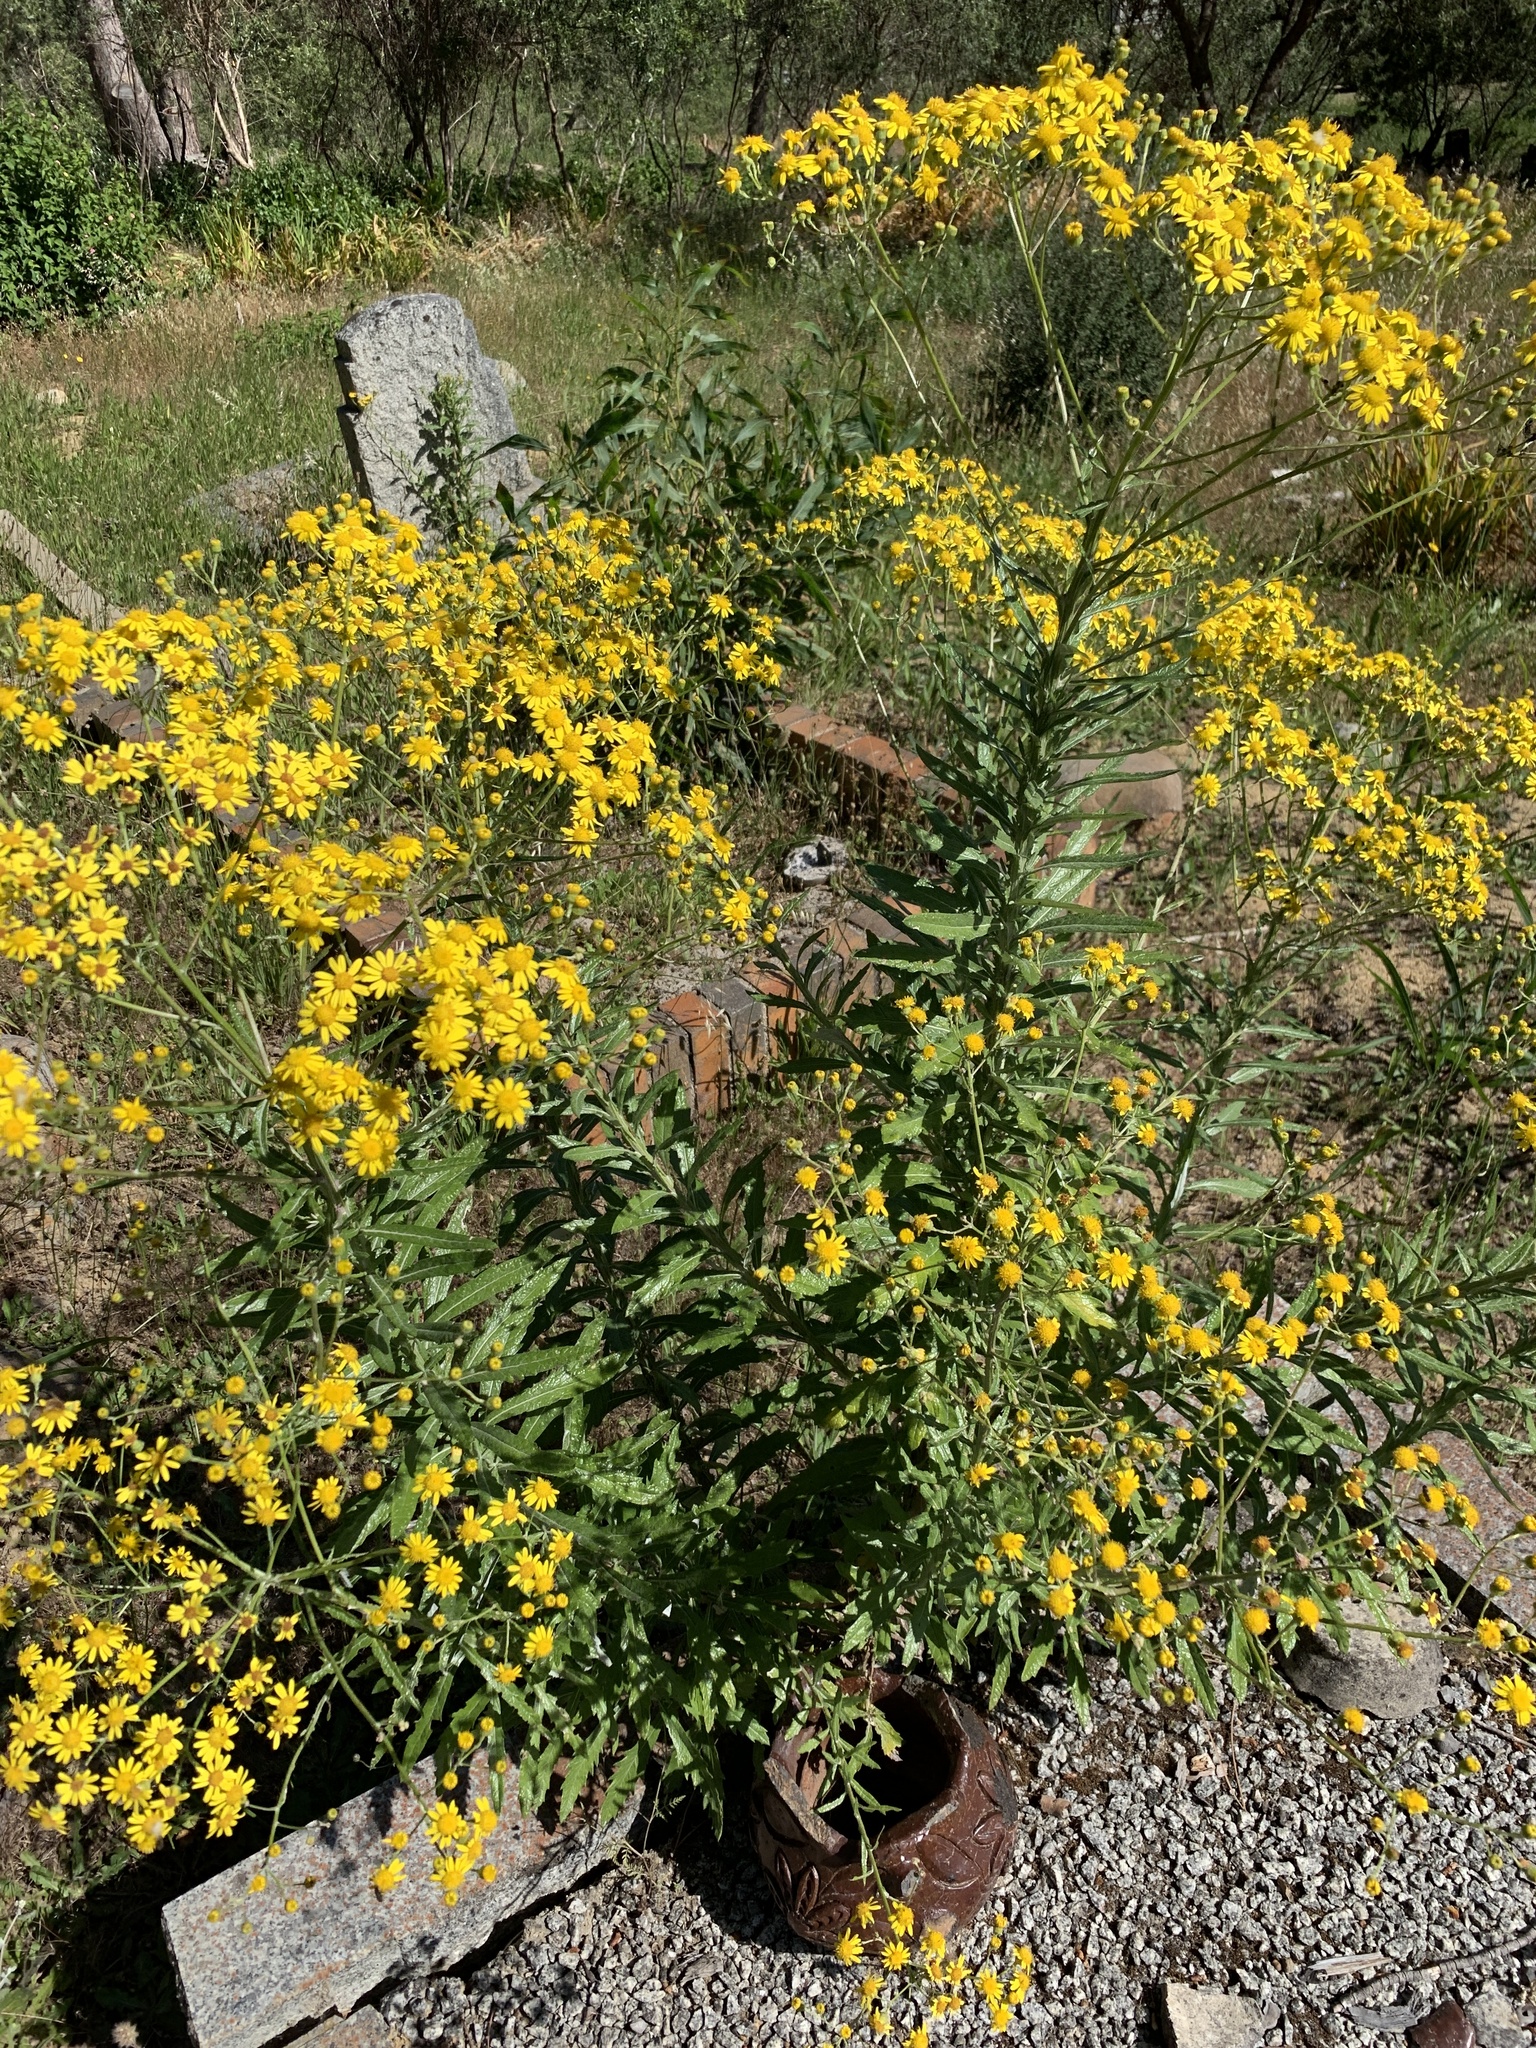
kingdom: Plantae
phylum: Tracheophyta
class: Magnoliopsida
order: Asterales
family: Asteraceae
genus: Senecio
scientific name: Senecio pterophorus
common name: Shoddy ragwort
